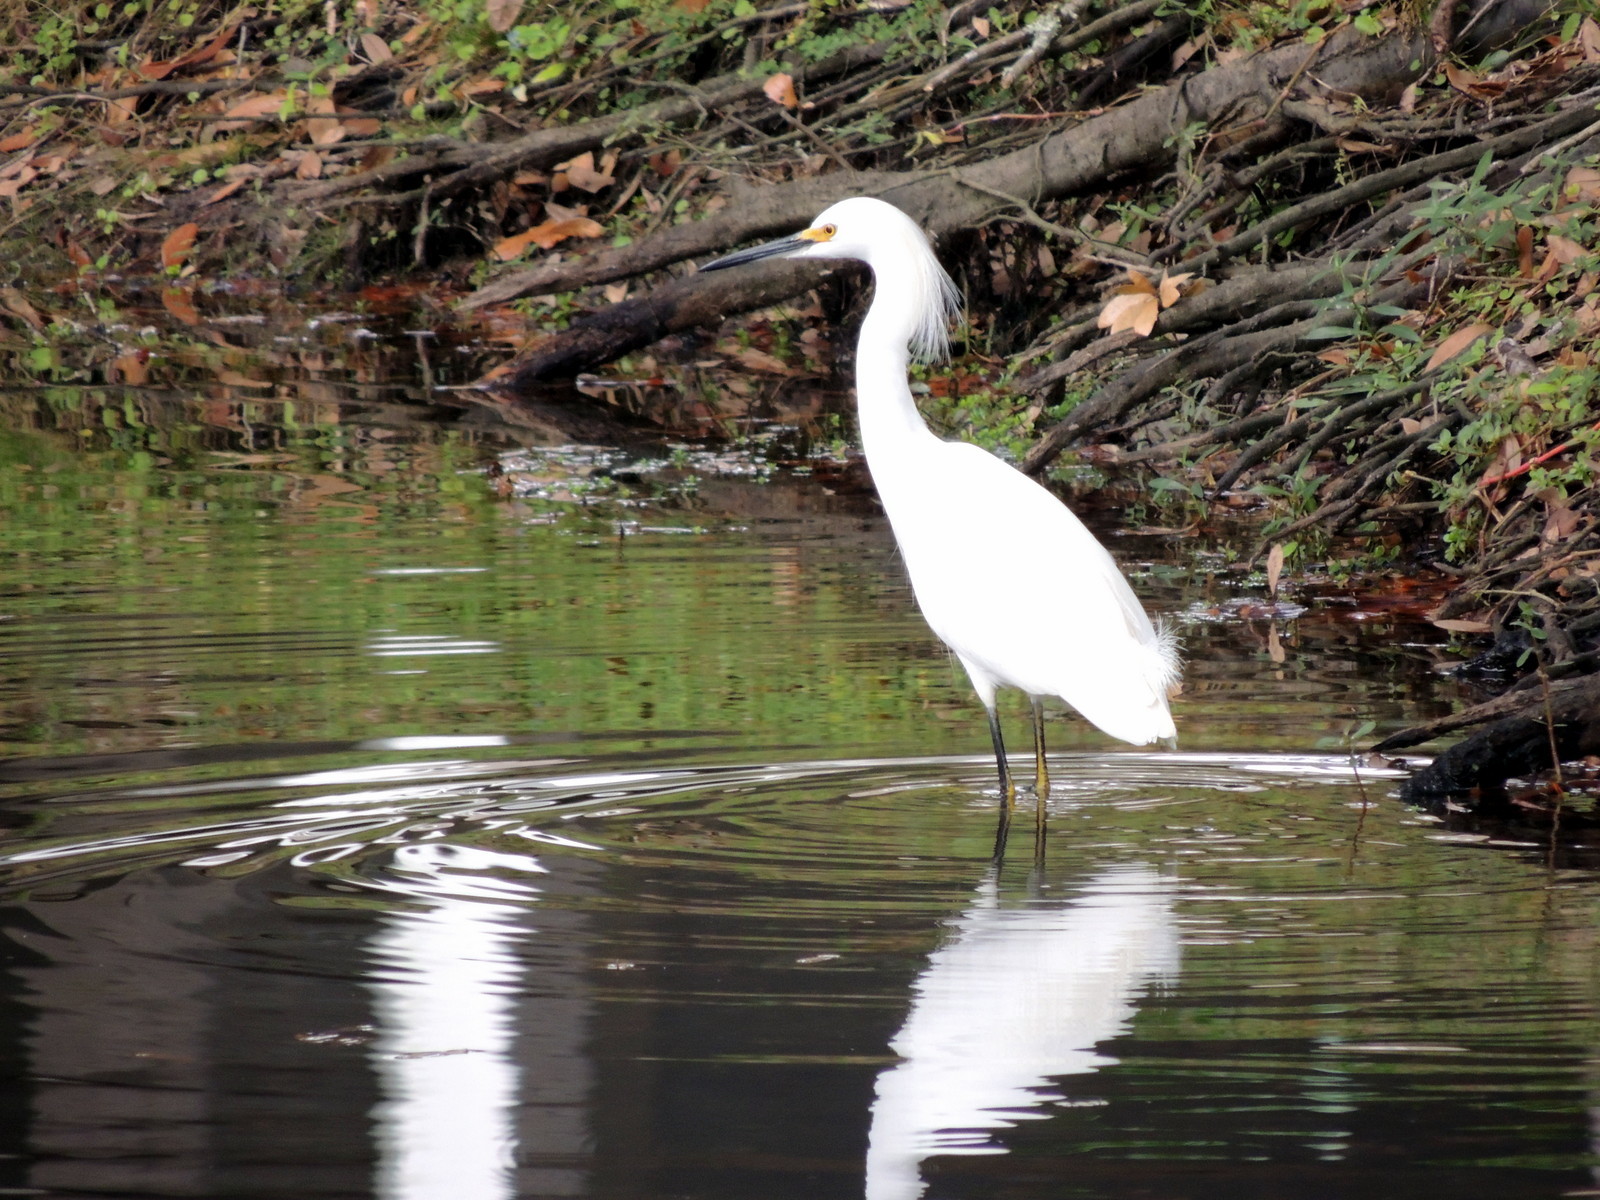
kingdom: Animalia
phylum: Chordata
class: Aves
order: Pelecaniformes
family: Ardeidae
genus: Egretta
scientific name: Egretta thula
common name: Snowy egret
